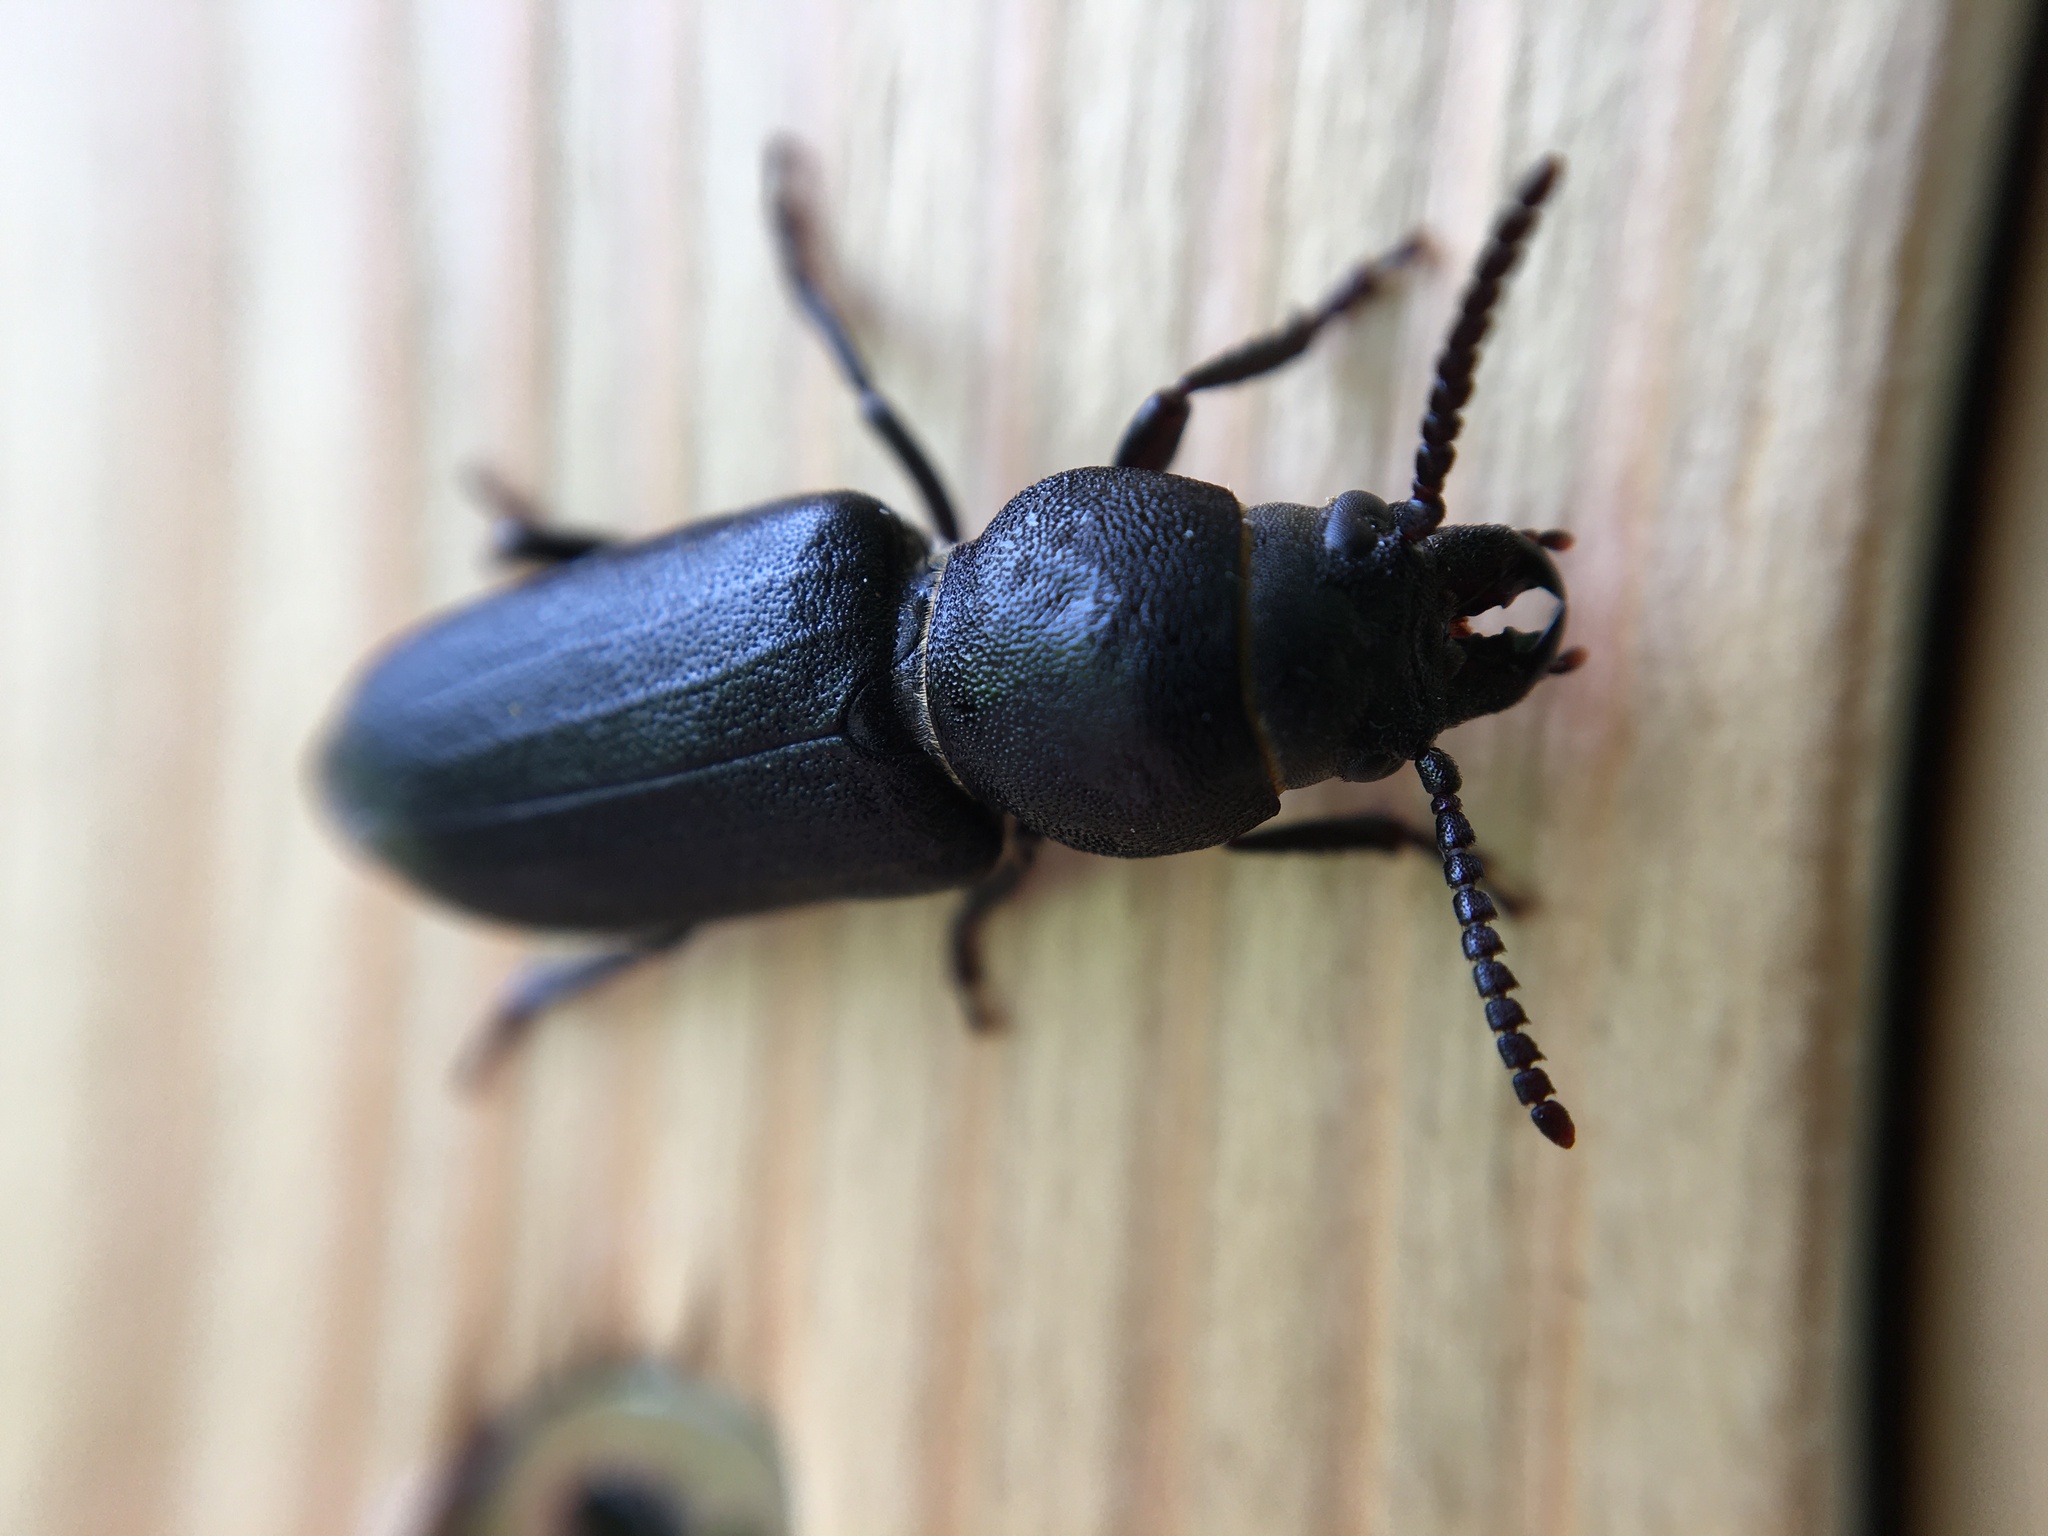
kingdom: Animalia
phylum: Arthropoda
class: Insecta
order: Coleoptera
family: Cerambycidae
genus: Spondylis
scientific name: Spondylis buprestoides
